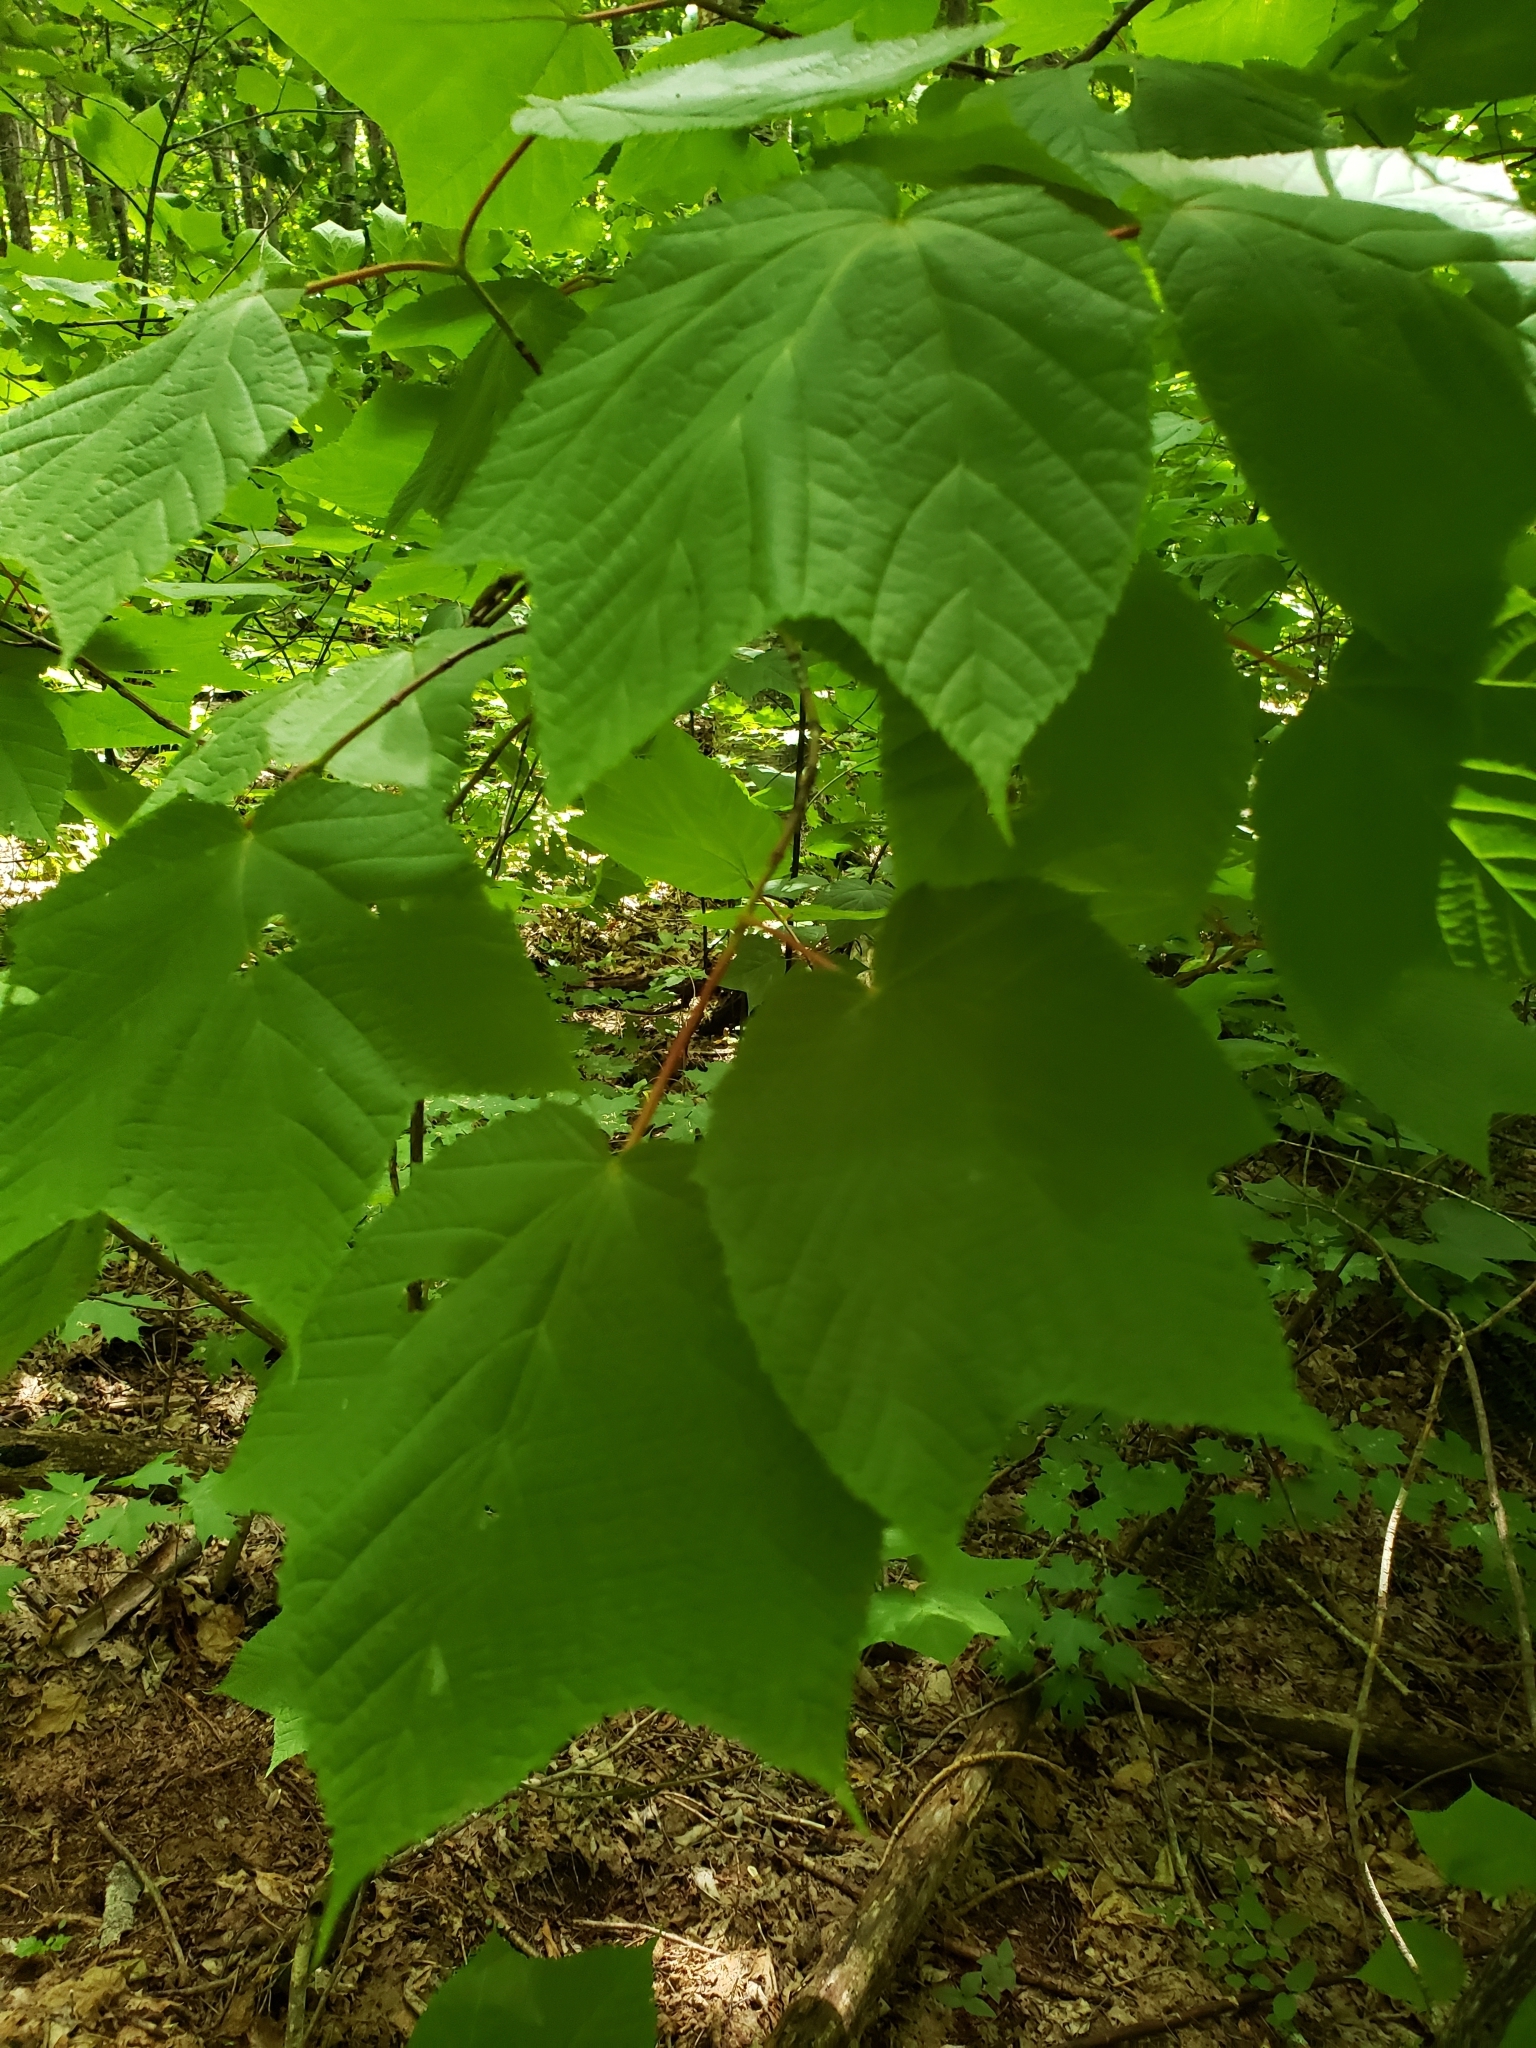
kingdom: Plantae
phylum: Tracheophyta
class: Magnoliopsida
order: Sapindales
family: Sapindaceae
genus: Acer
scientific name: Acer pensylvanicum
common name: Moosewood
